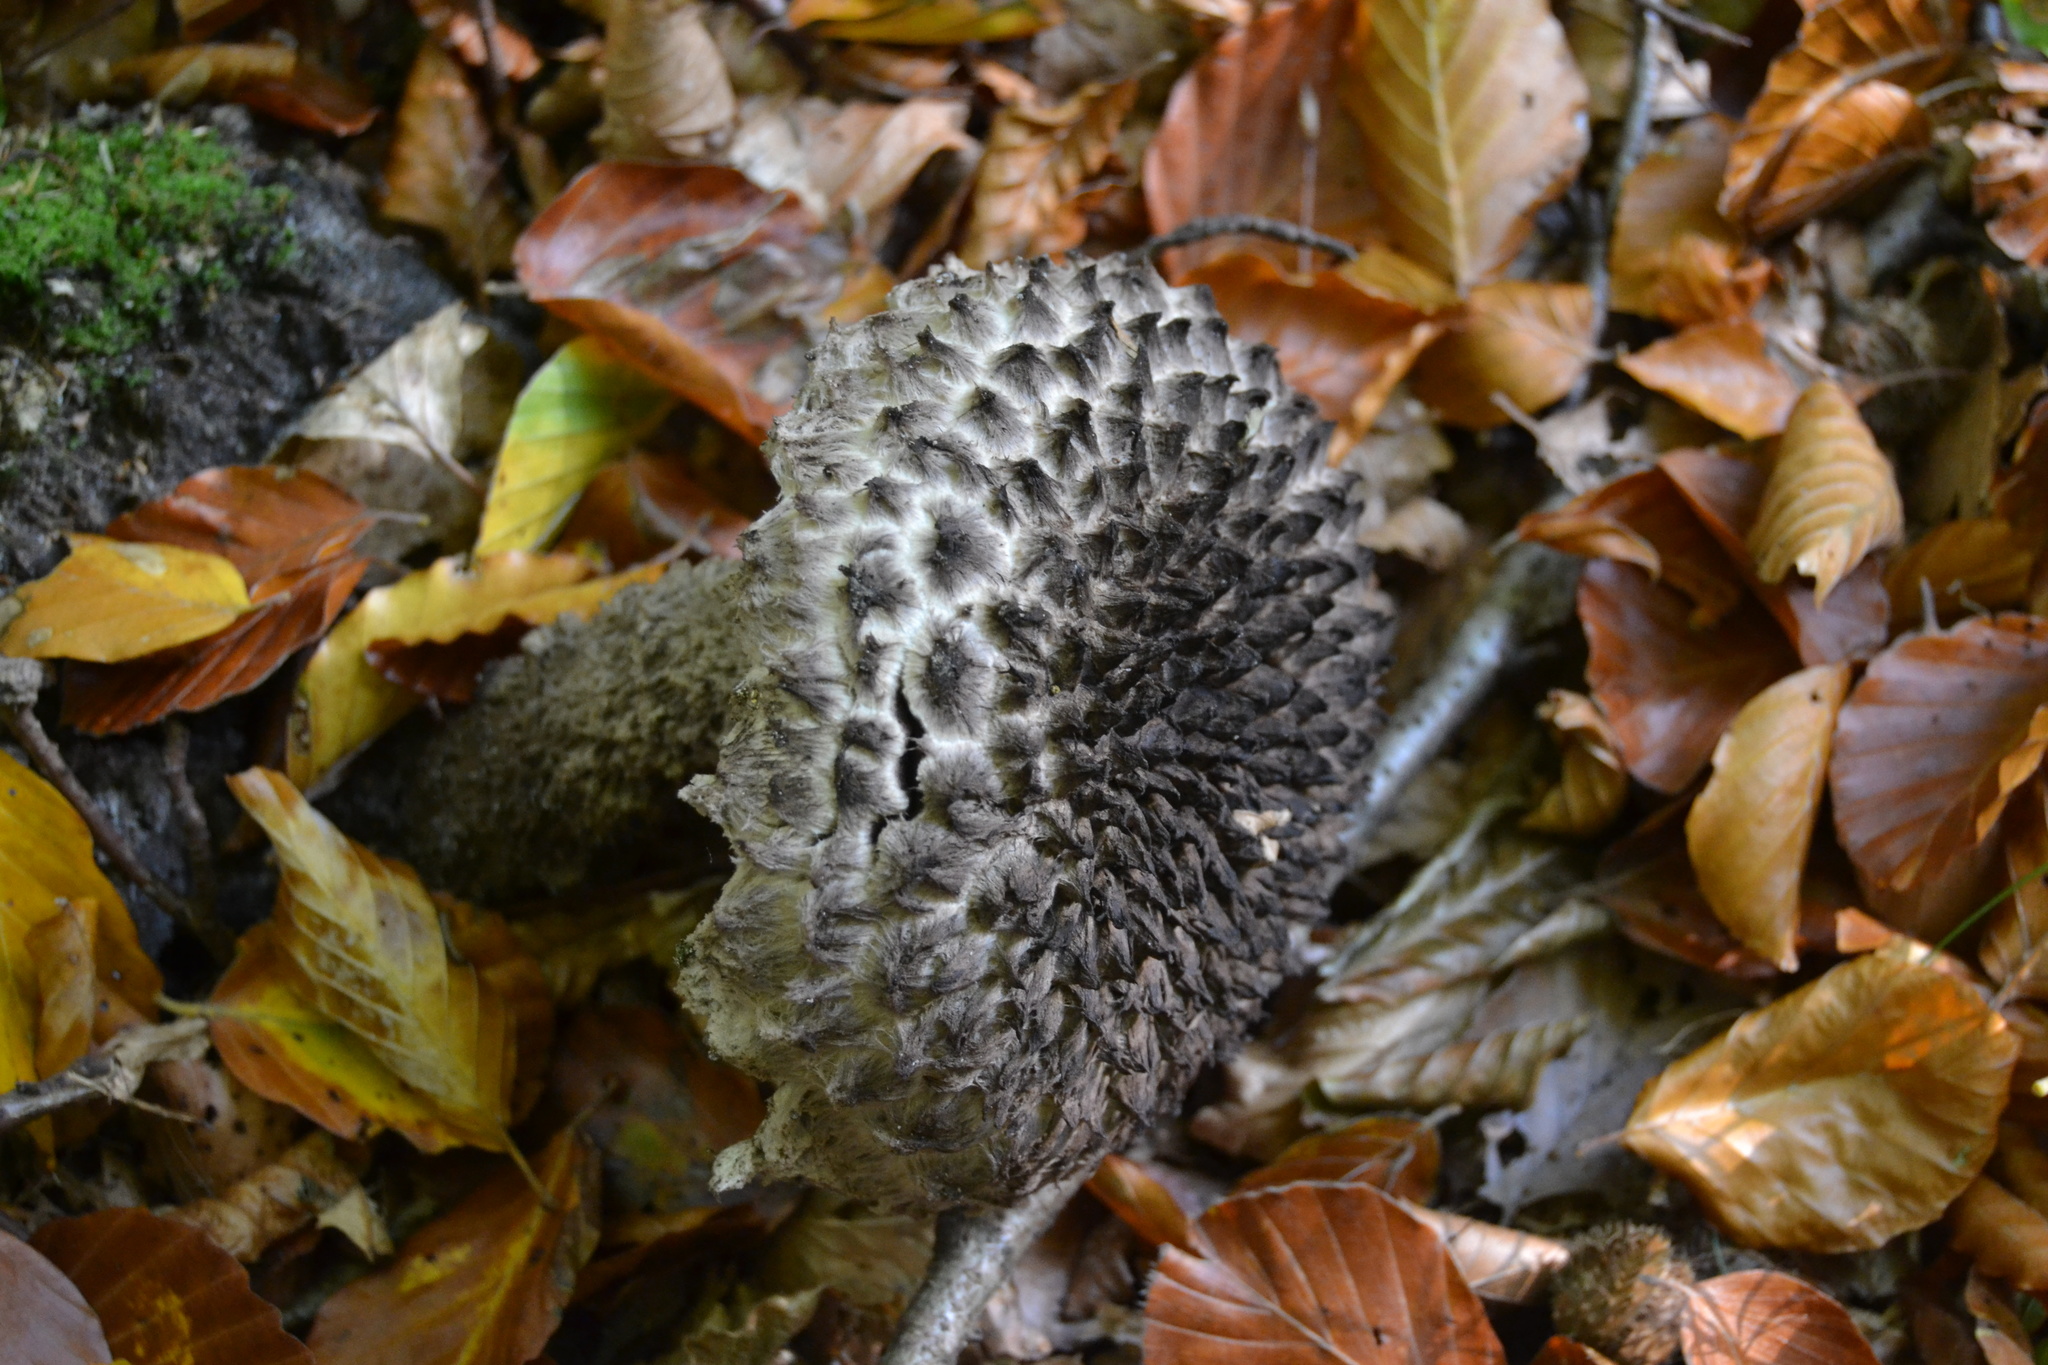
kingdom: Fungi
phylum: Basidiomycota
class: Agaricomycetes
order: Boletales
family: Boletaceae
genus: Strobilomyces
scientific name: Strobilomyces strobilaceus
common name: Old man of the woods
